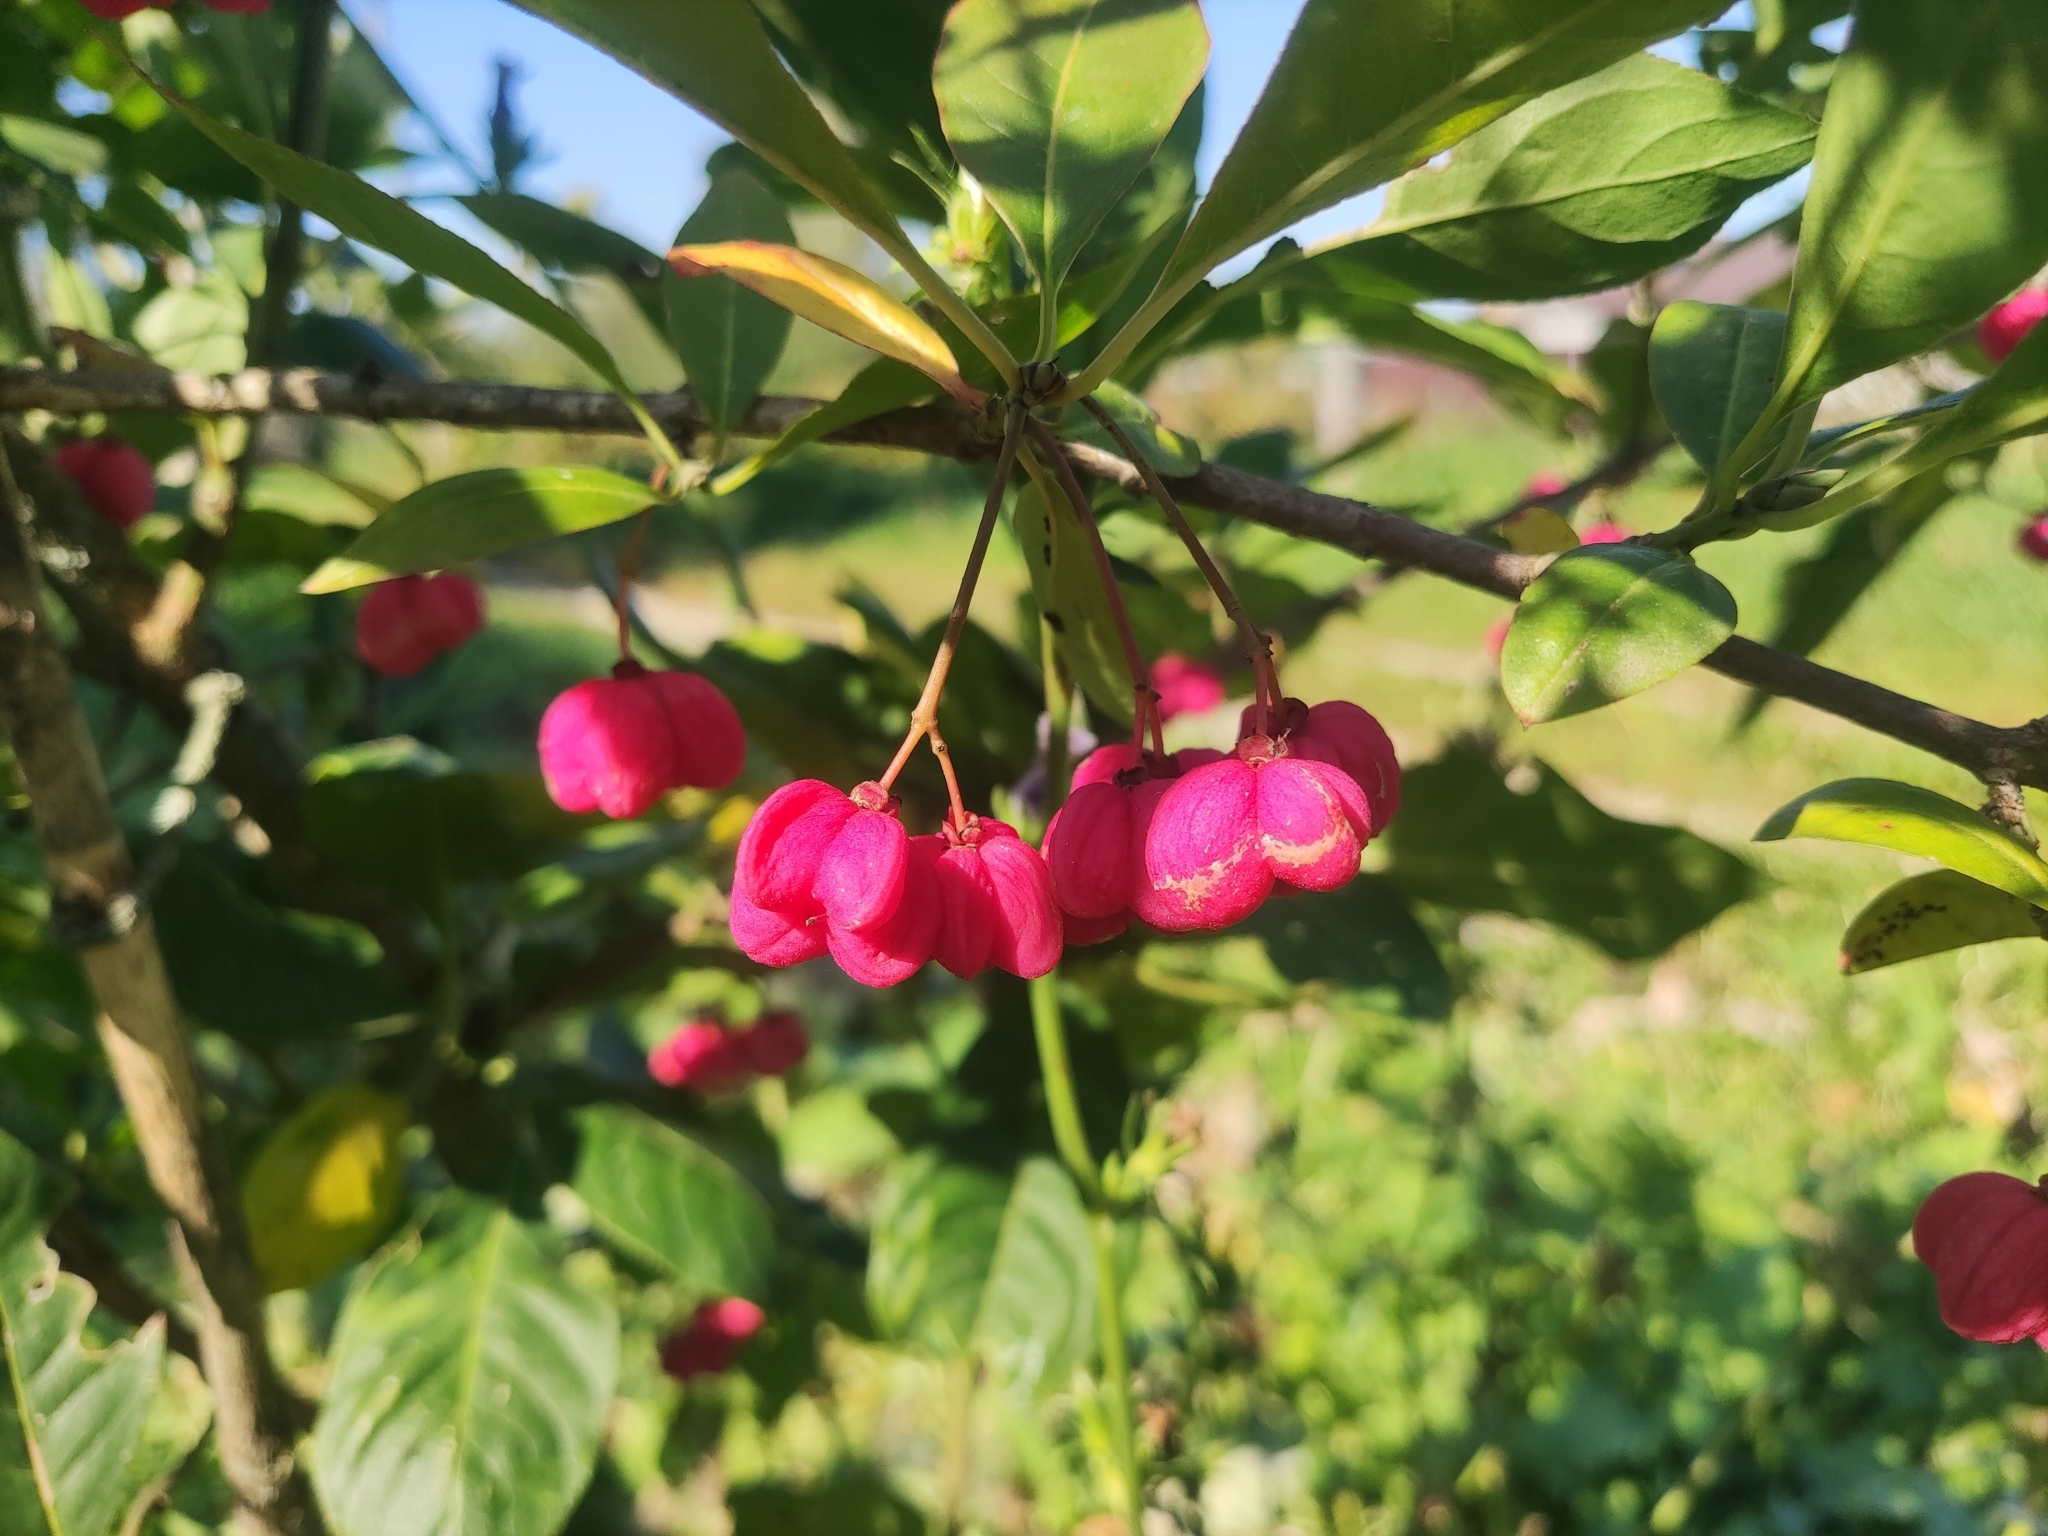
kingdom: Plantae
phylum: Tracheophyta
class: Magnoliopsida
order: Celastrales
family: Celastraceae
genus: Euonymus
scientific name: Euonymus europaeus
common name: Spindle
